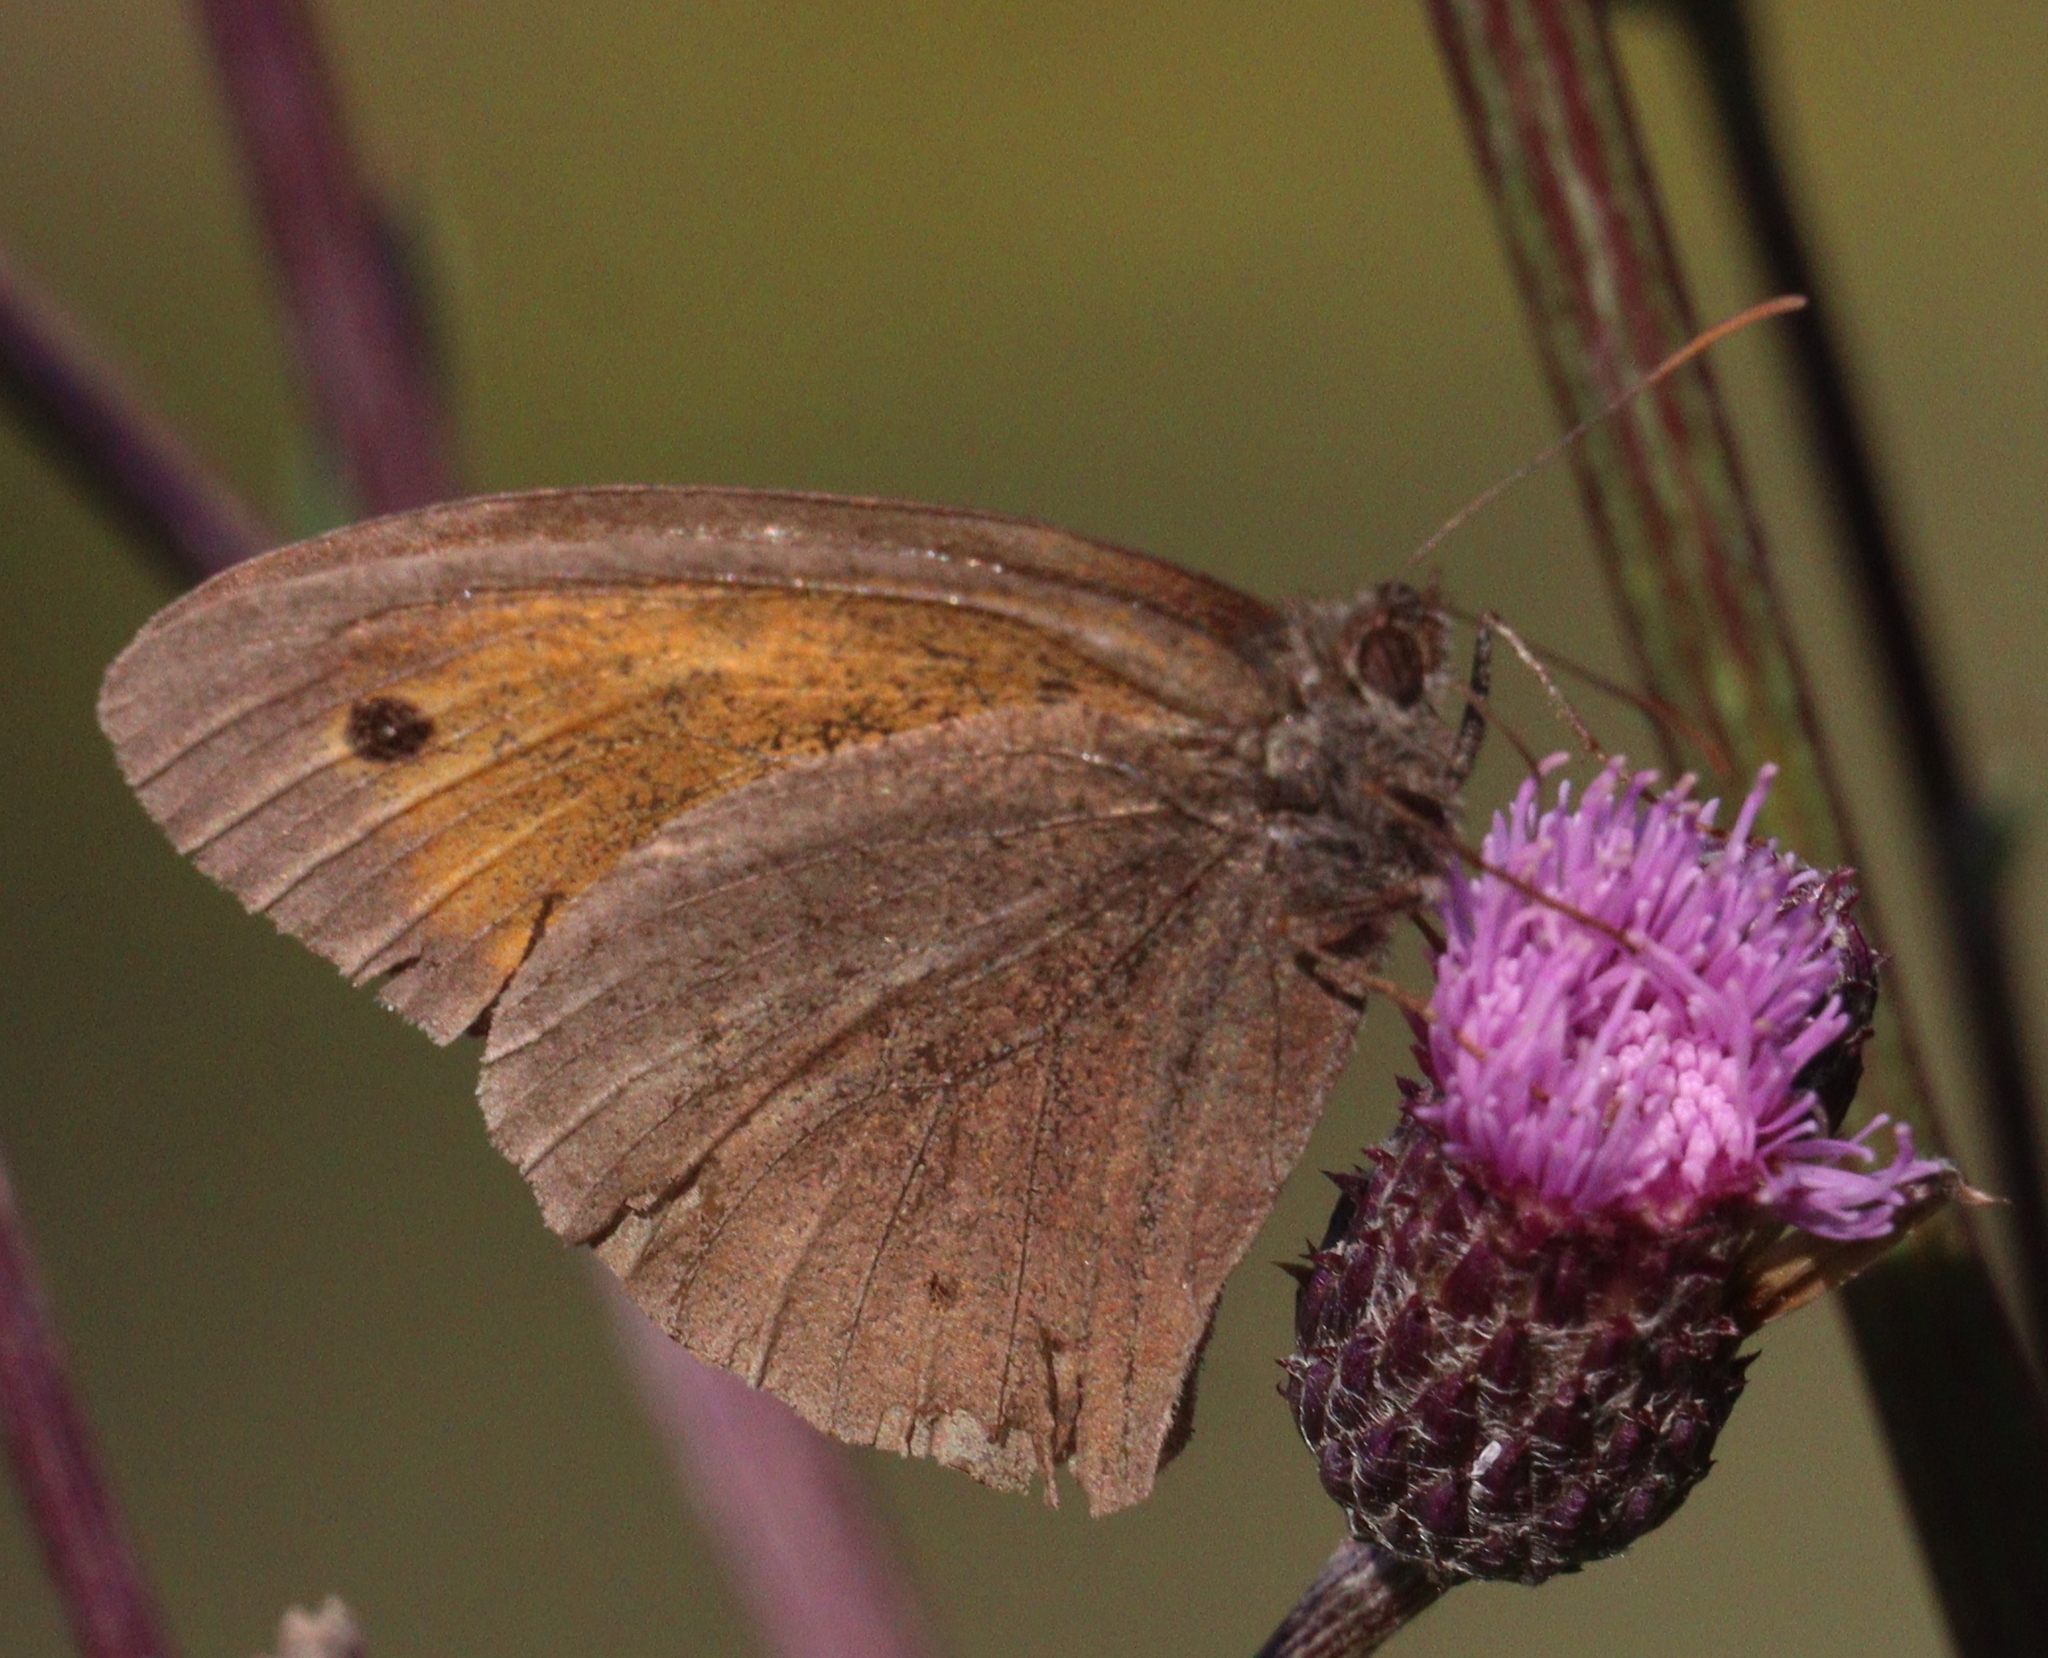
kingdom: Animalia
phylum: Arthropoda
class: Insecta
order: Lepidoptera
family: Nymphalidae
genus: Maniola
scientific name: Maniola jurtina
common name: Meadow brown
